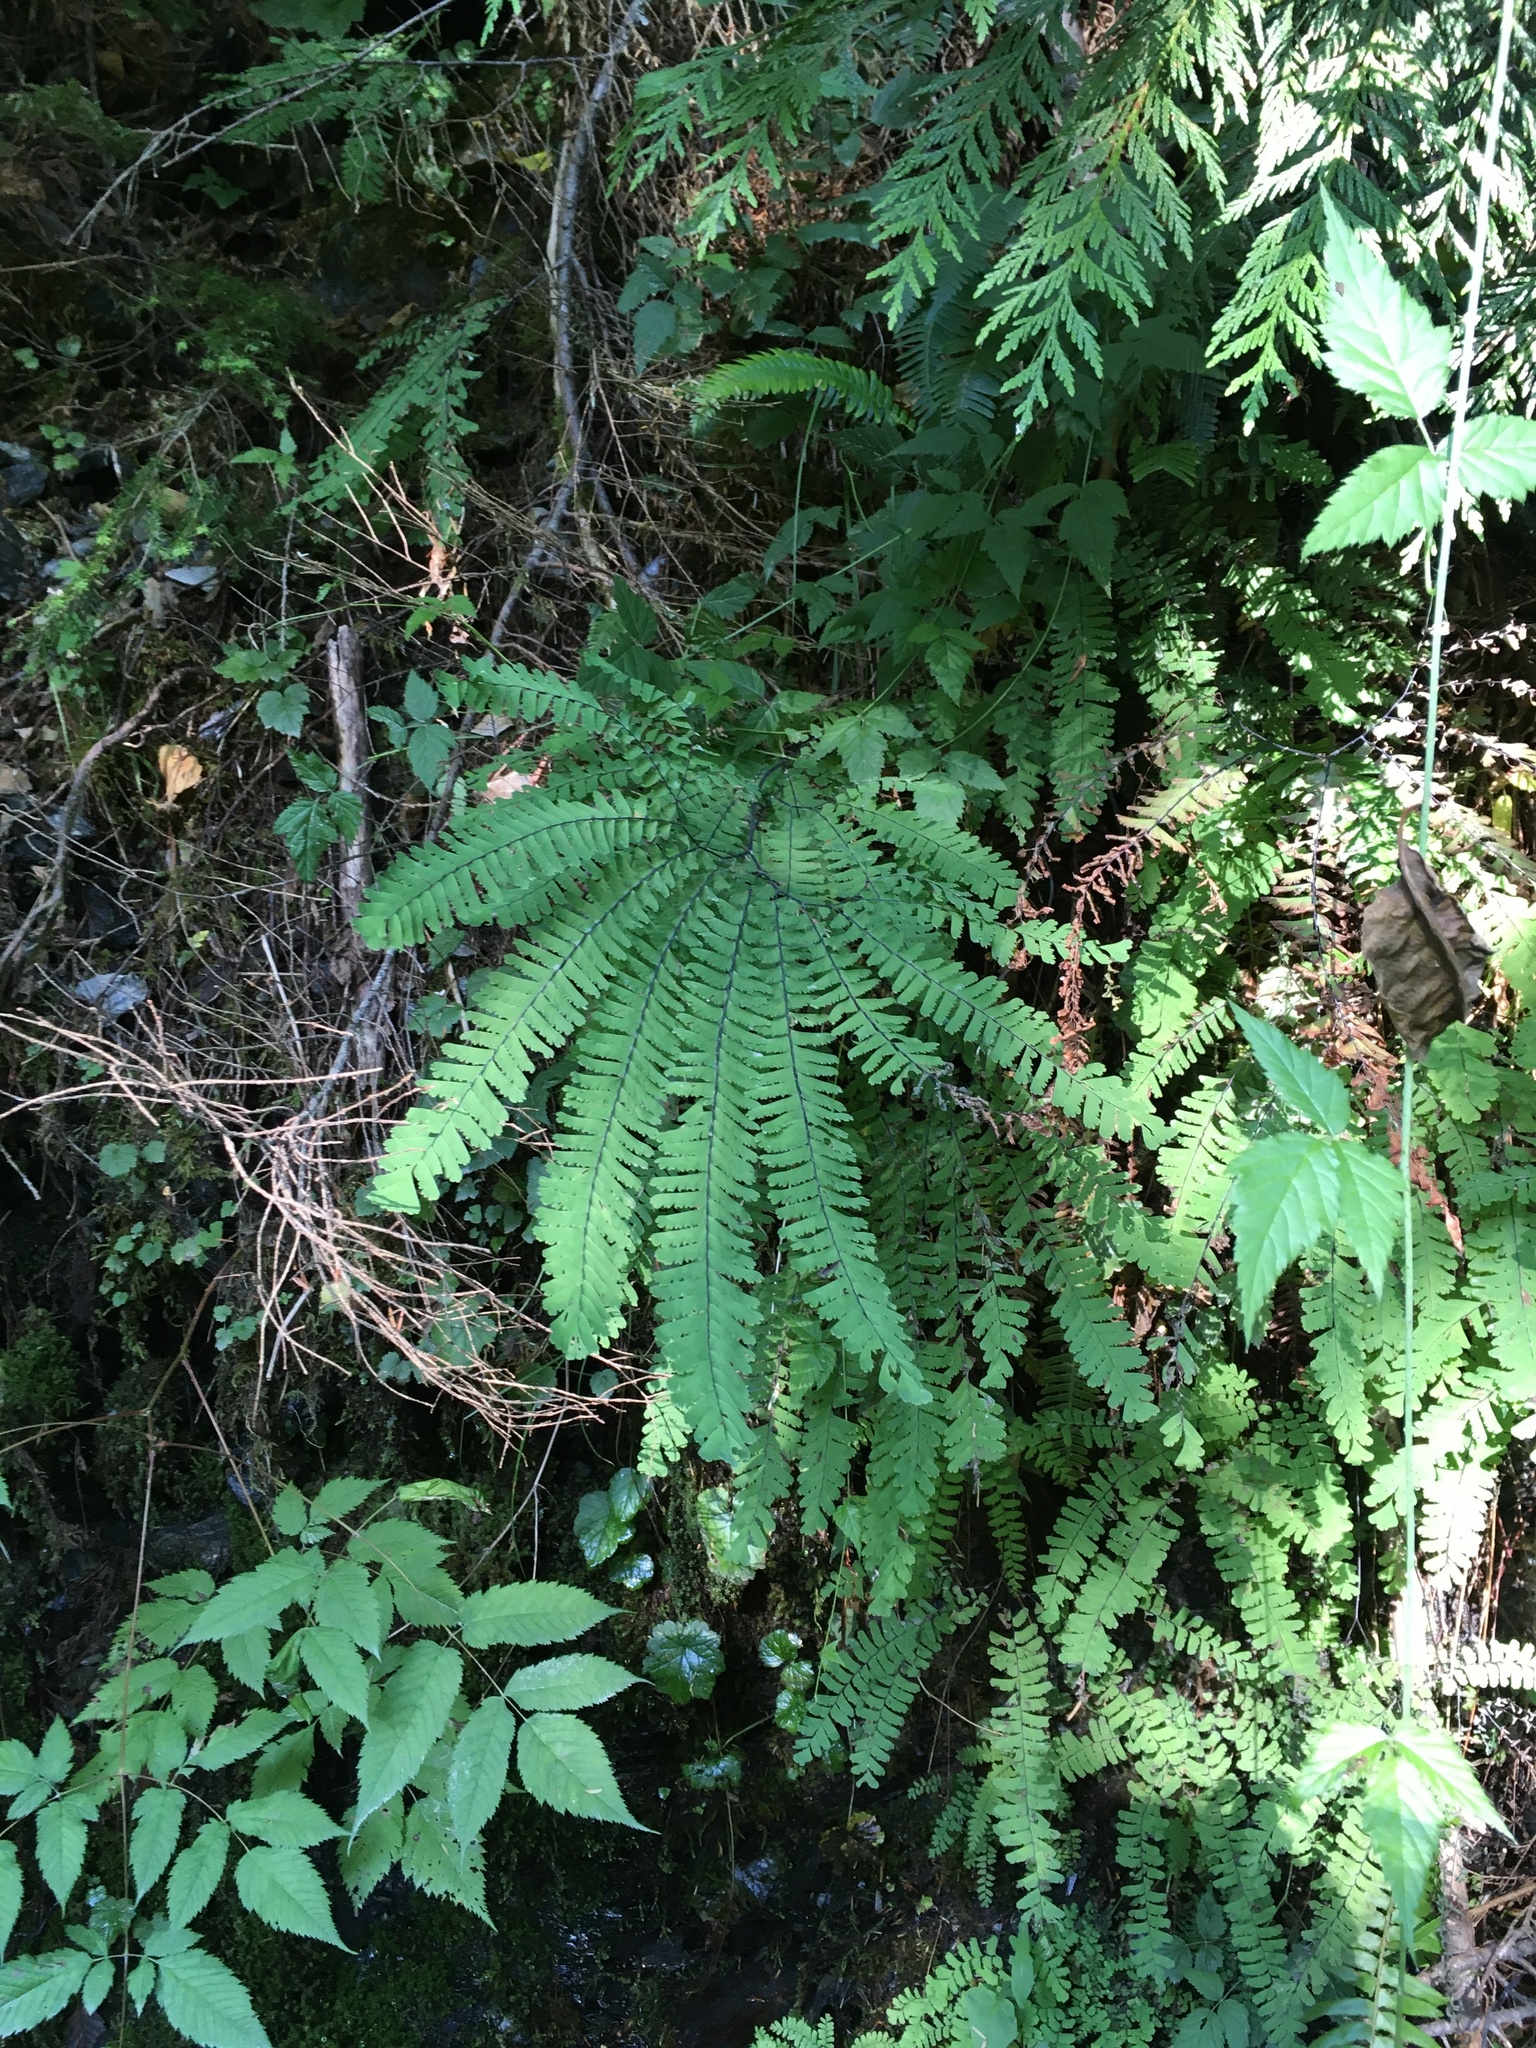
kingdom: Plantae
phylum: Tracheophyta
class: Polypodiopsida
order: Polypodiales
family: Pteridaceae
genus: Adiantum
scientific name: Adiantum aleuticum
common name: Aleutian maidenhair fern
